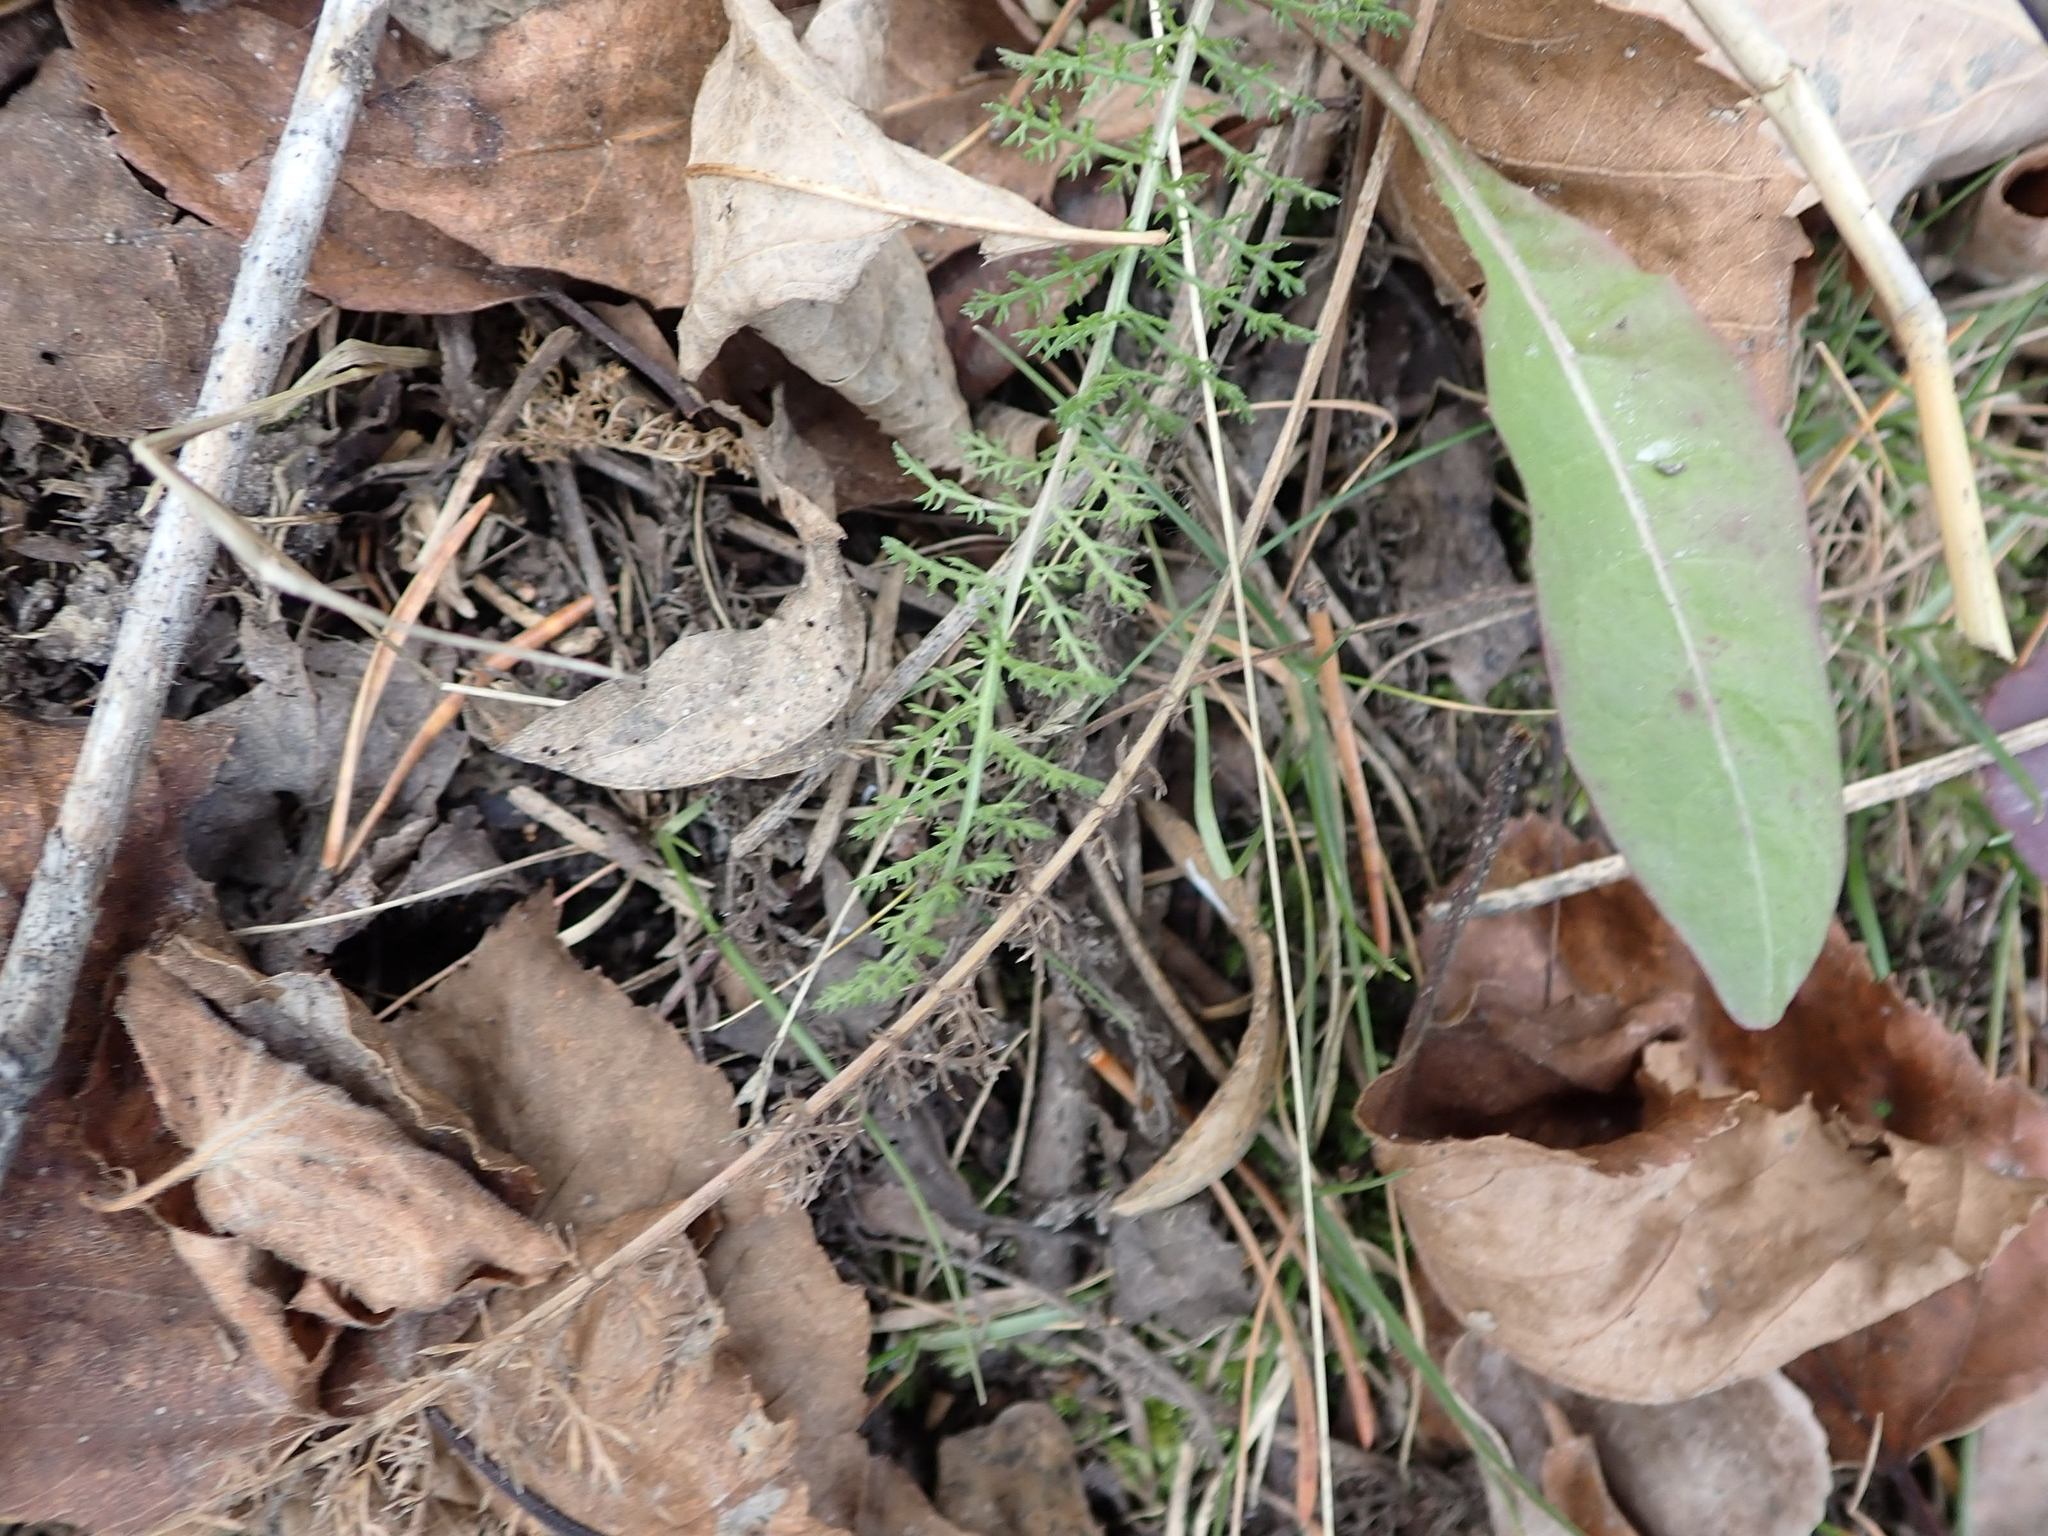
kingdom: Plantae
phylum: Tracheophyta
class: Magnoliopsida
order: Asterales
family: Asteraceae
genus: Achillea
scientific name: Achillea millefolium
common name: Yarrow
